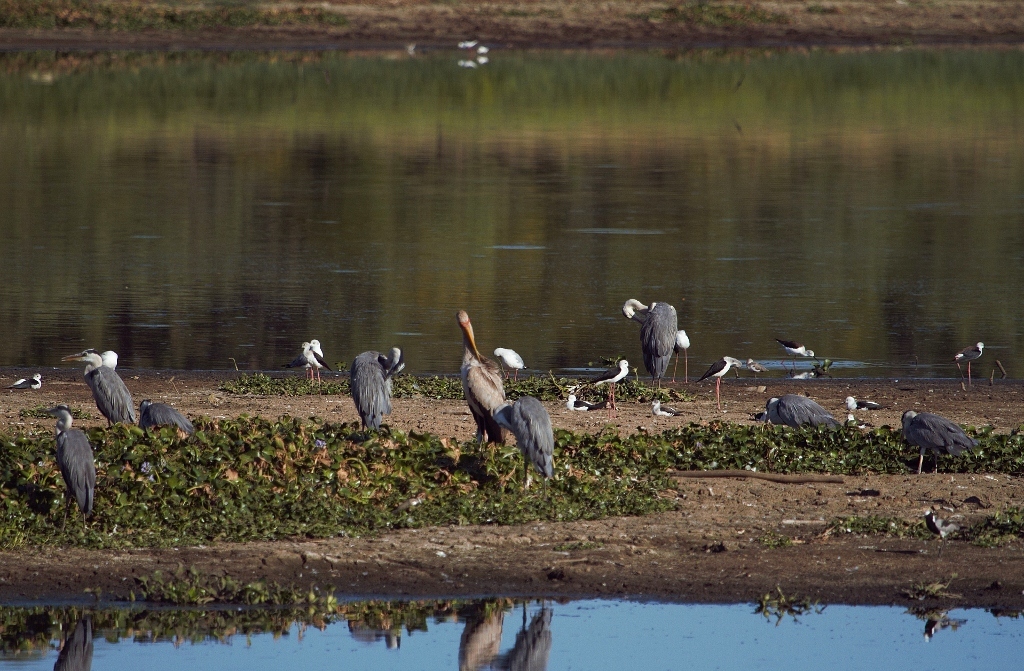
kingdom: Animalia
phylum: Chordata
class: Aves
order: Pelecaniformes
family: Ardeidae
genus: Ardea
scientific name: Ardea cinerea
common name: Grey heron
